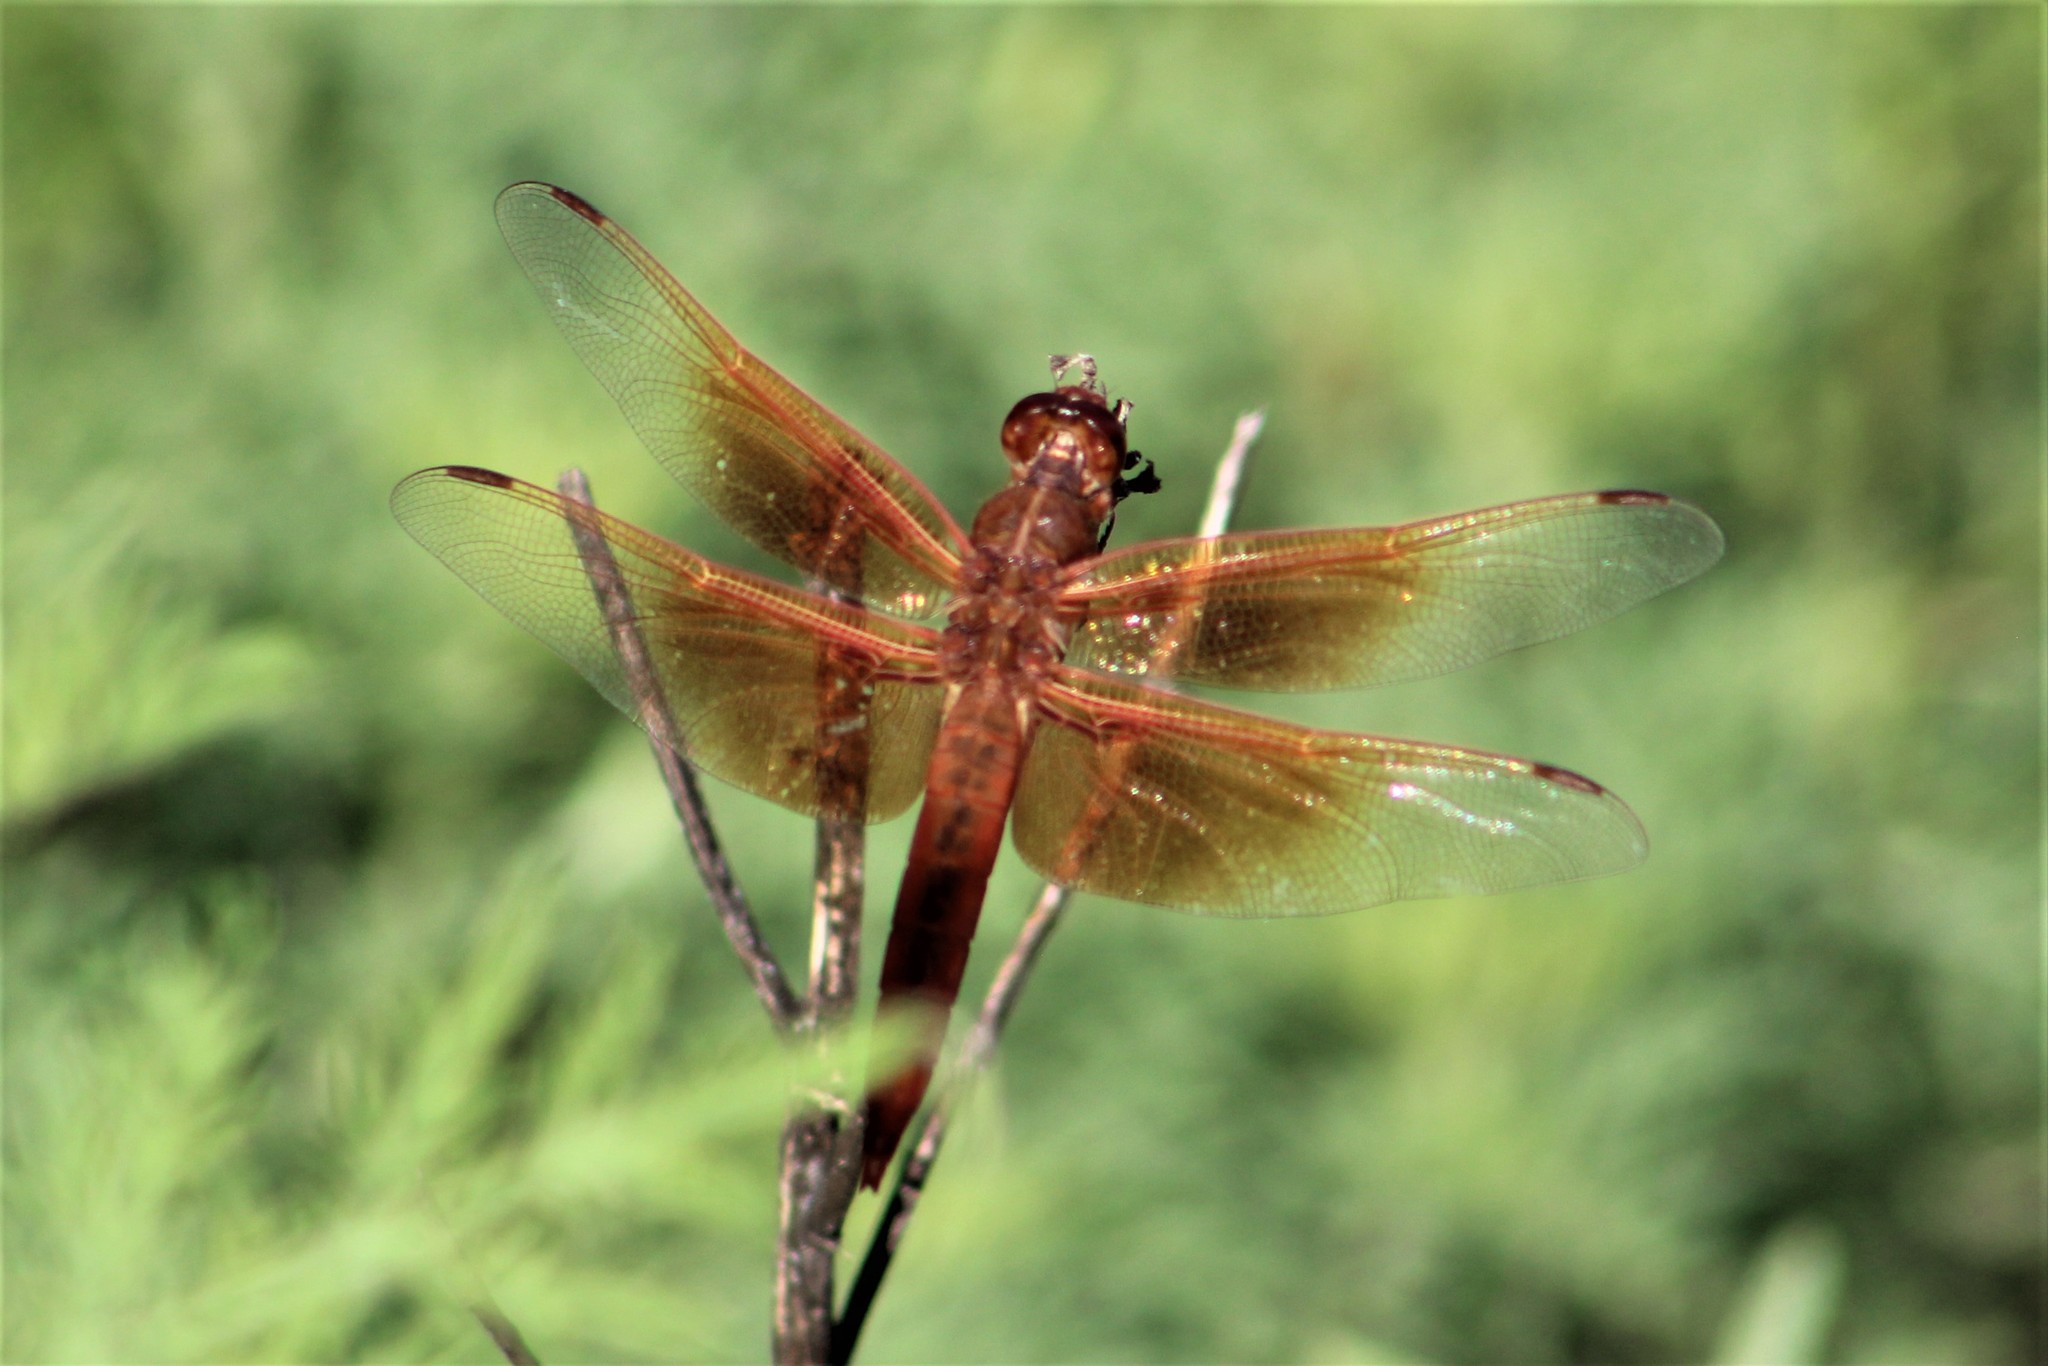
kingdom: Animalia
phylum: Arthropoda
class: Insecta
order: Odonata
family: Libellulidae
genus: Libellula
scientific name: Libellula saturata
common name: Flame skimmer
